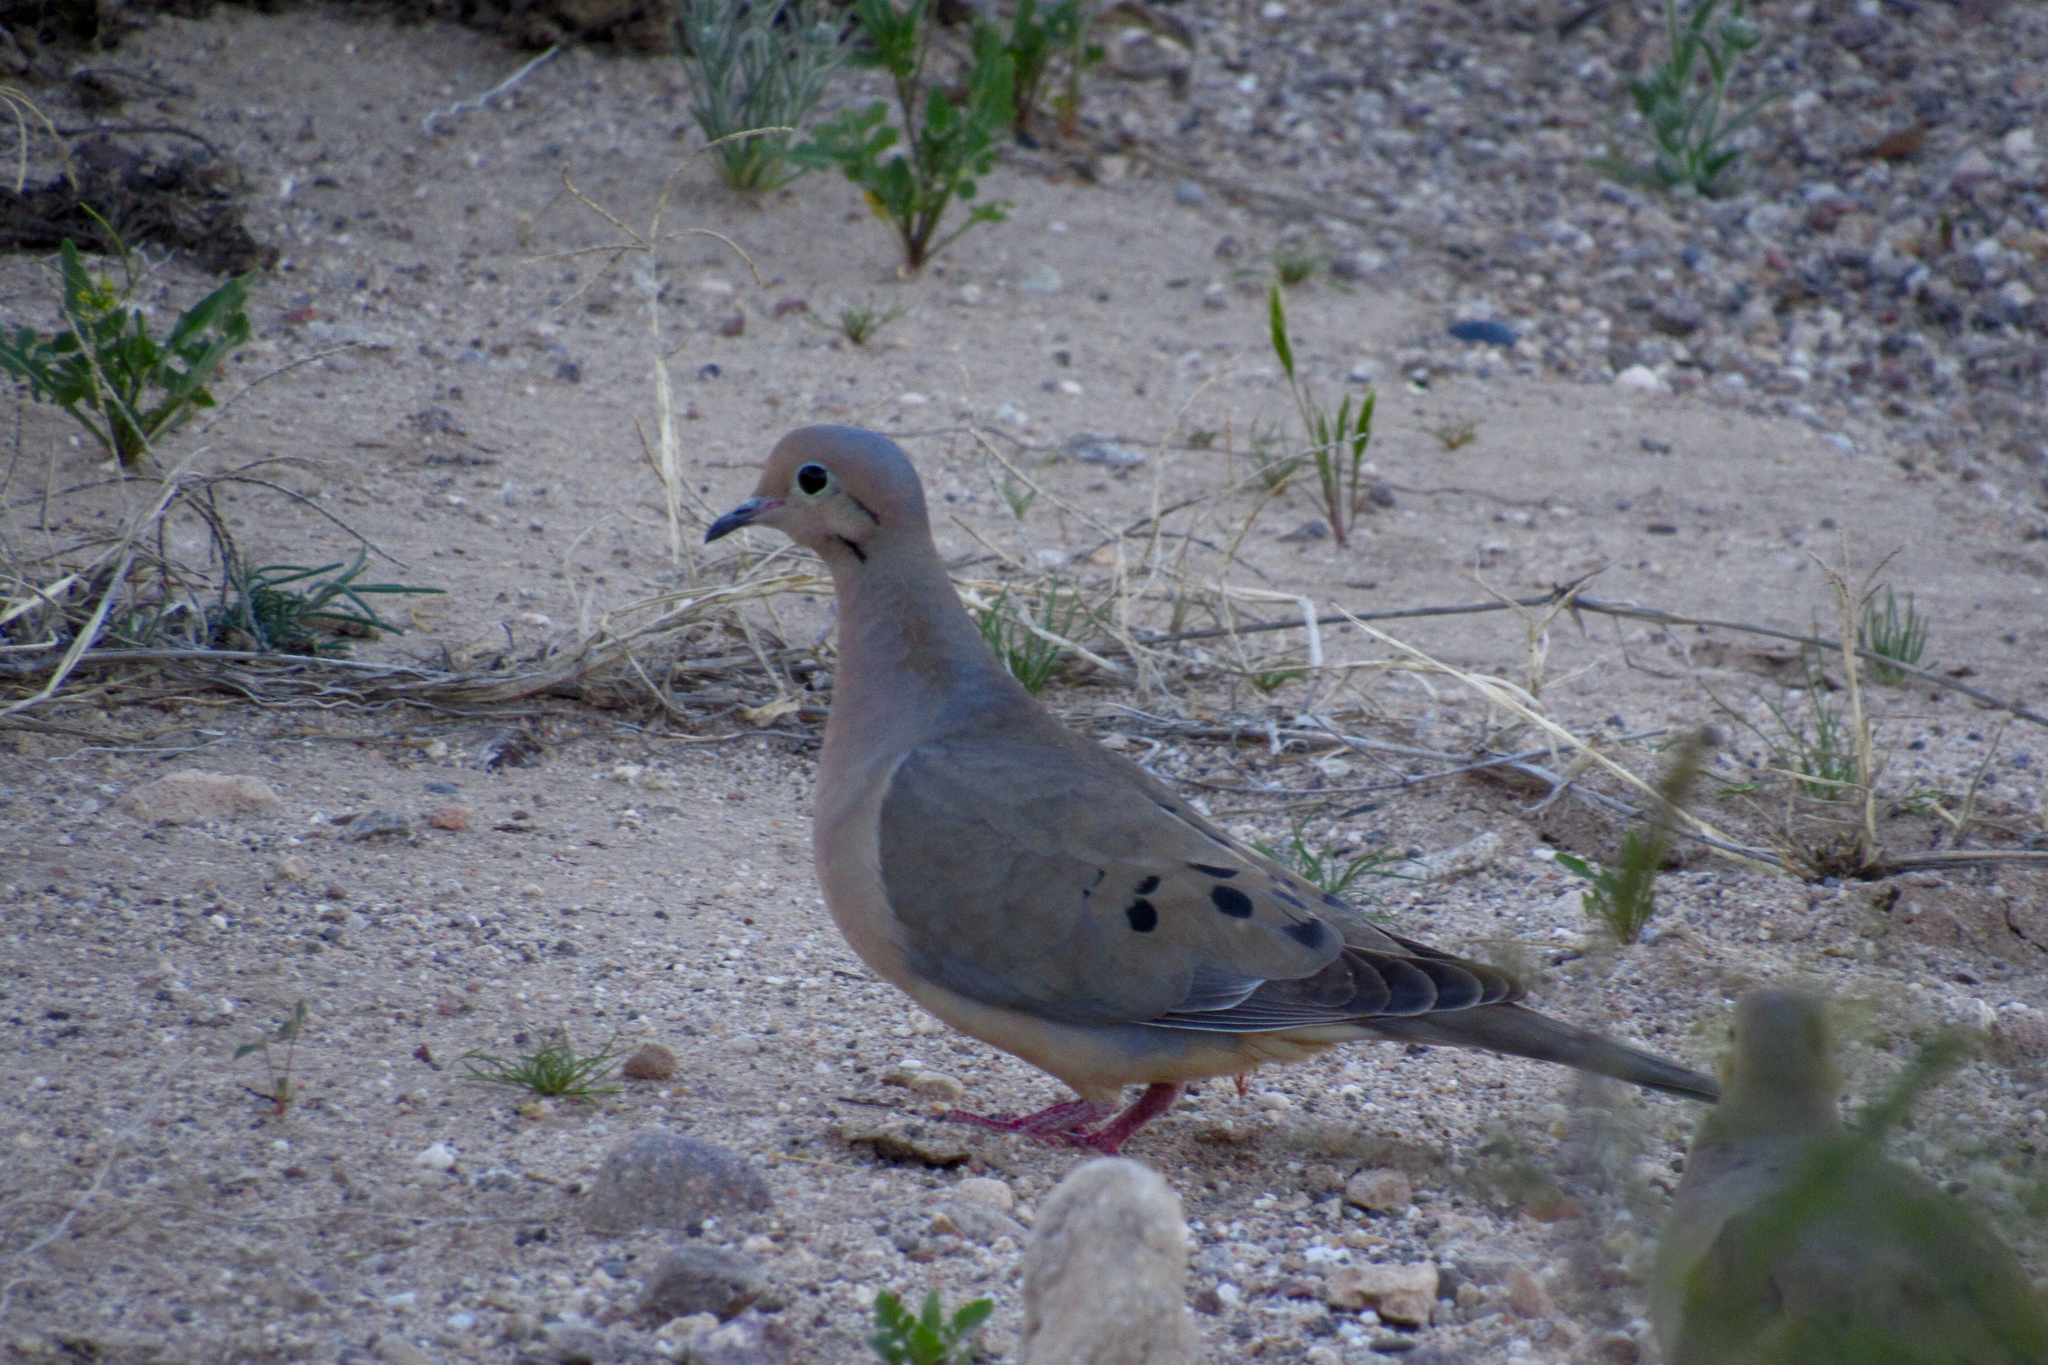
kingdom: Animalia
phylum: Chordata
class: Aves
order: Columbiformes
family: Columbidae
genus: Zenaida
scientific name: Zenaida macroura
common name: Mourning dove
